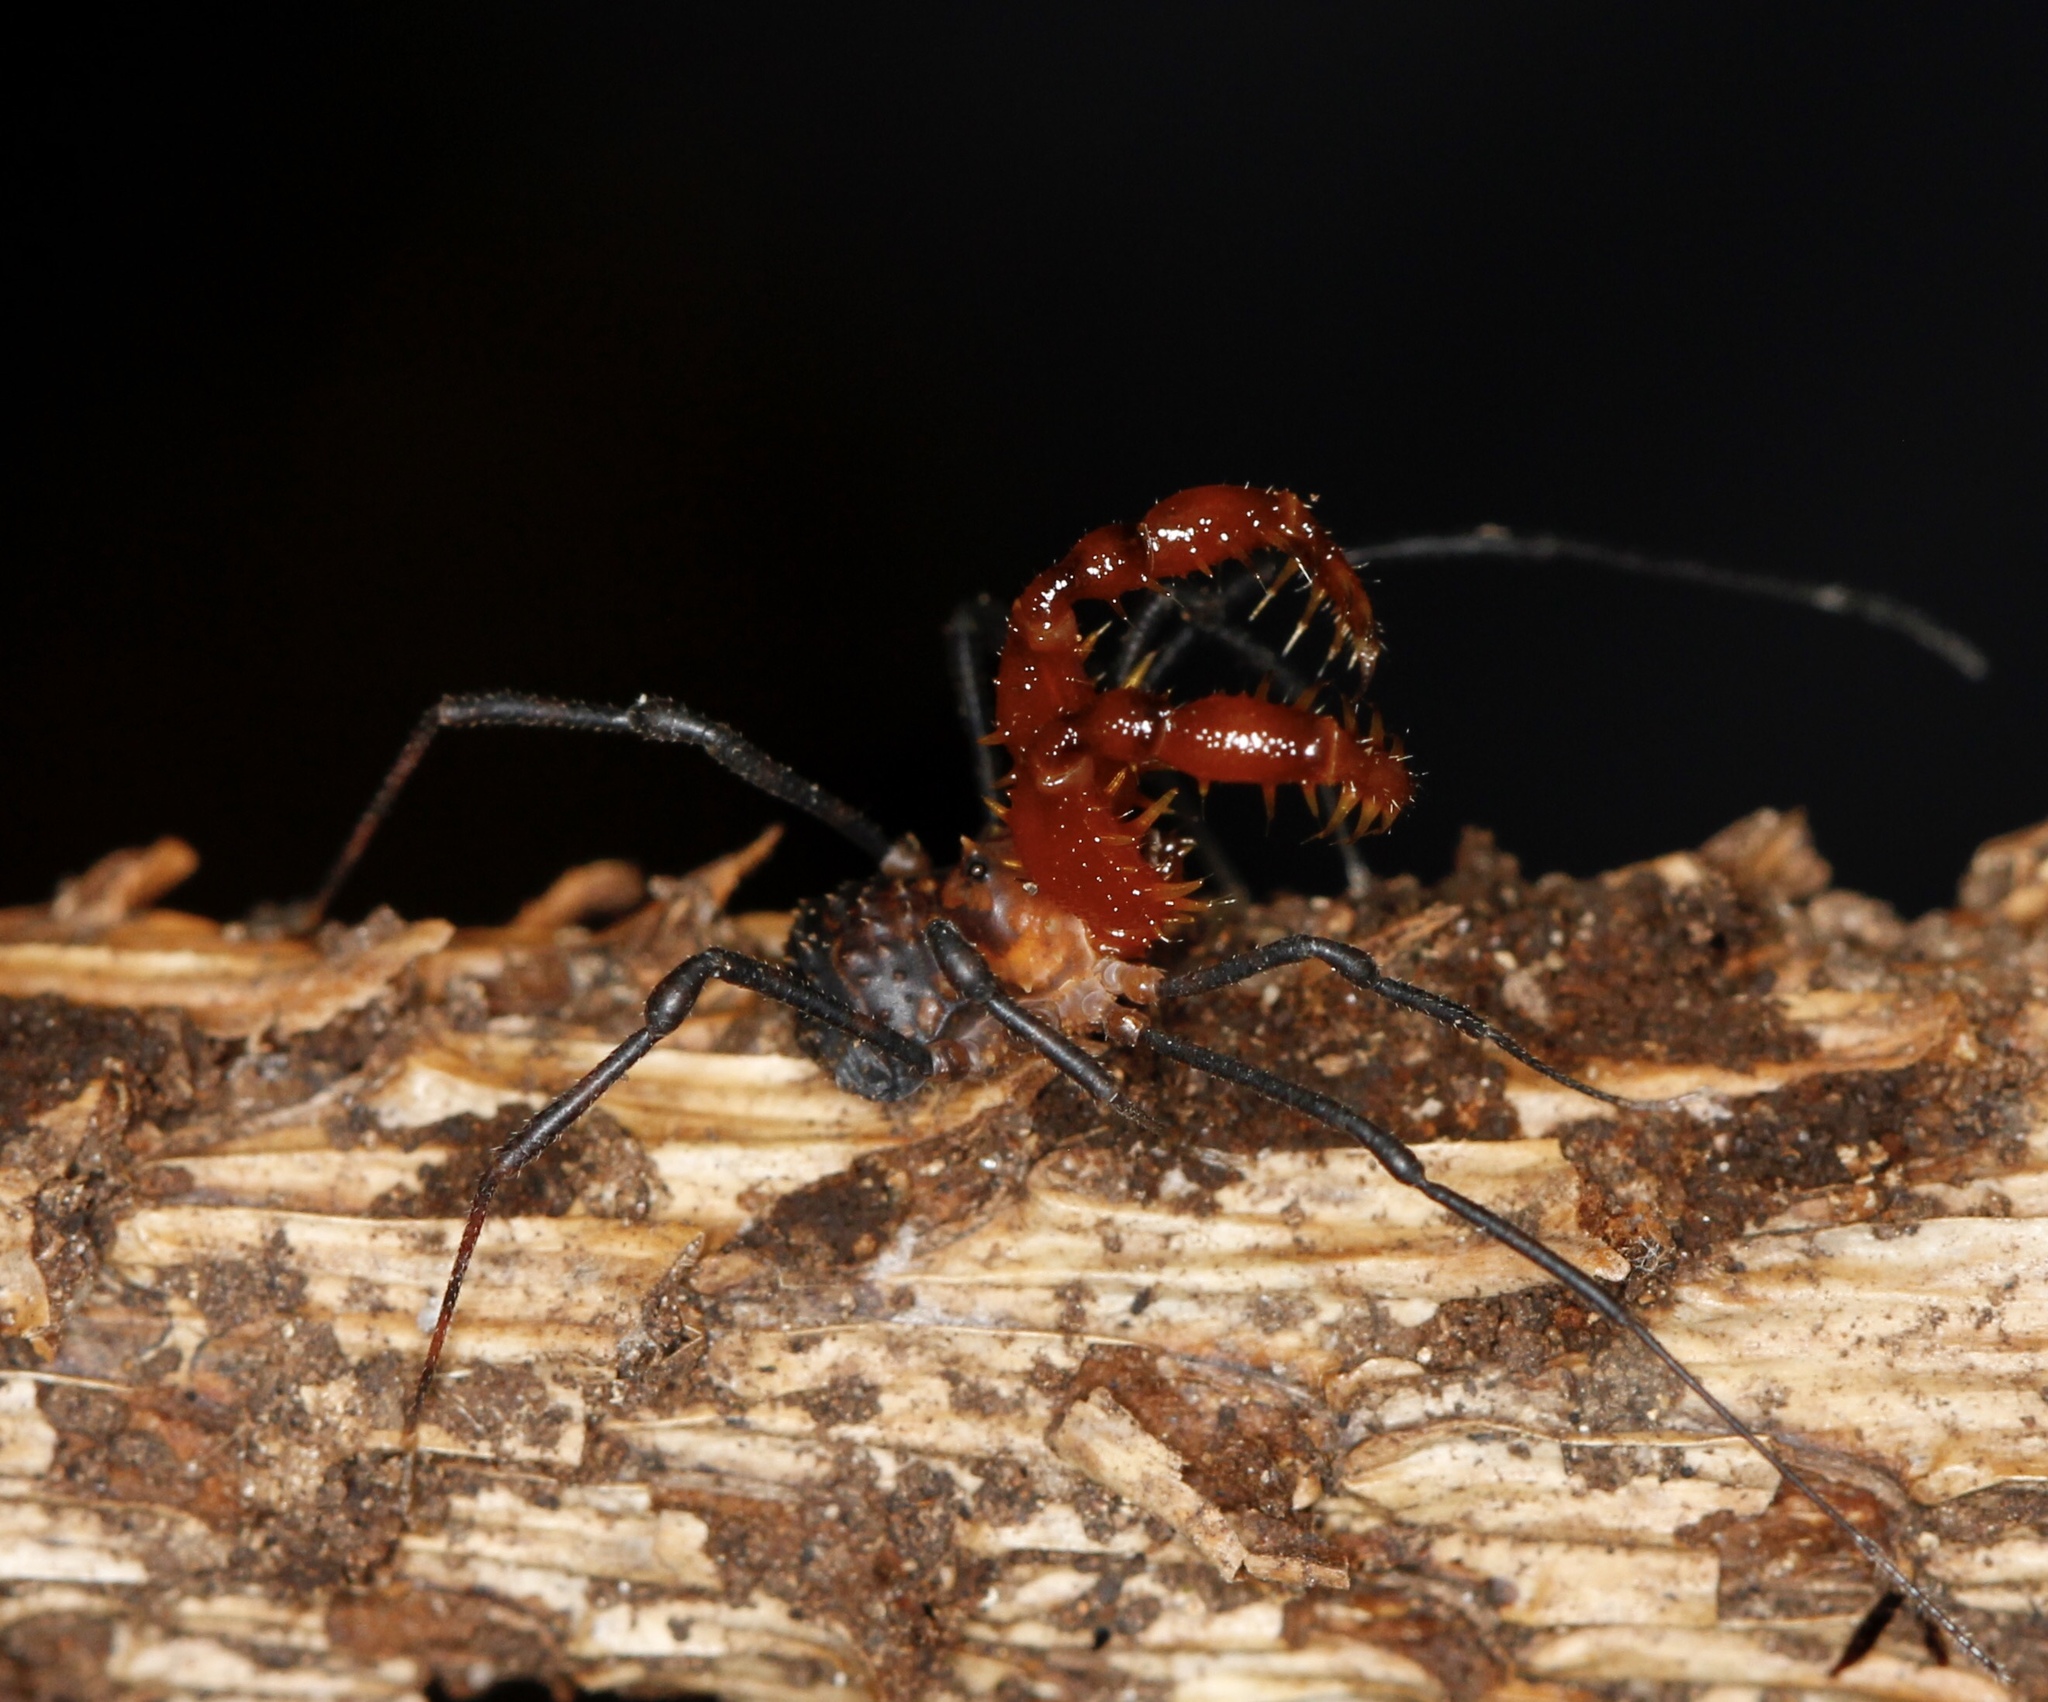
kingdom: Animalia
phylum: Arthropoda
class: Arachnida
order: Opiliones
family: Triaenonychidae
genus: Sorensenella
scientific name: Sorensenella prehensor
